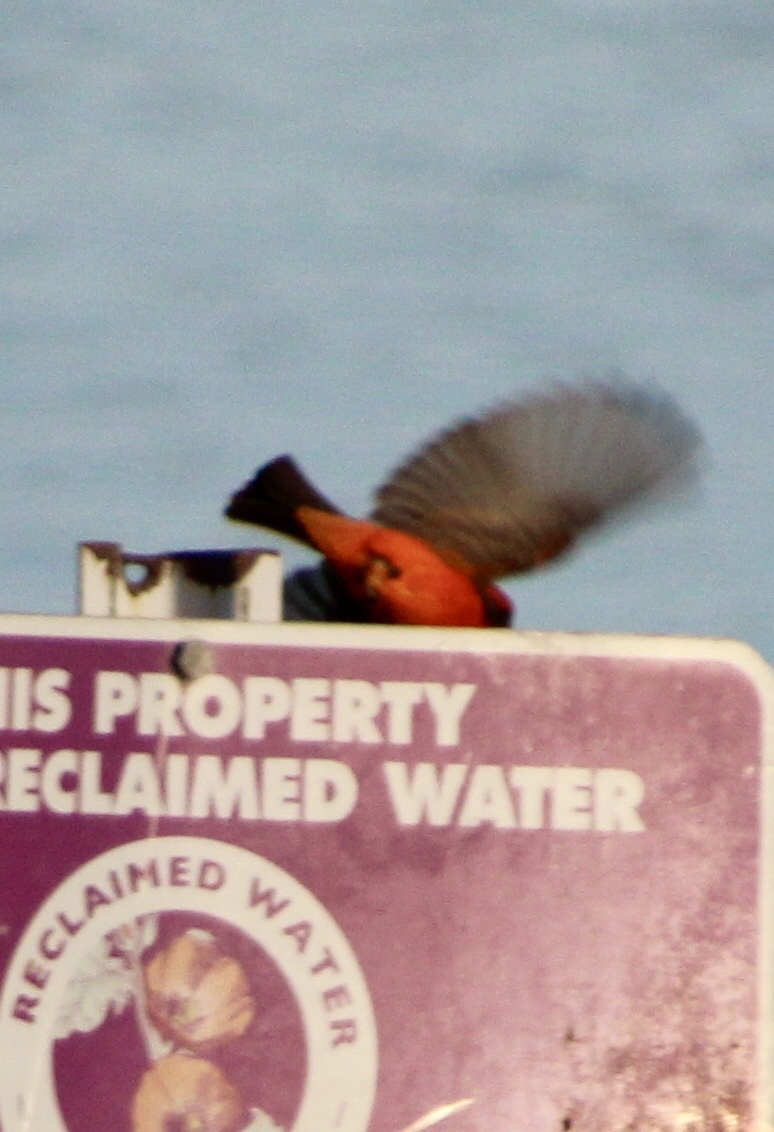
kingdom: Animalia
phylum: Chordata
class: Aves
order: Passeriformes
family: Tyrannidae
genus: Pyrocephalus
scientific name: Pyrocephalus rubinus
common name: Vermilion flycatcher
